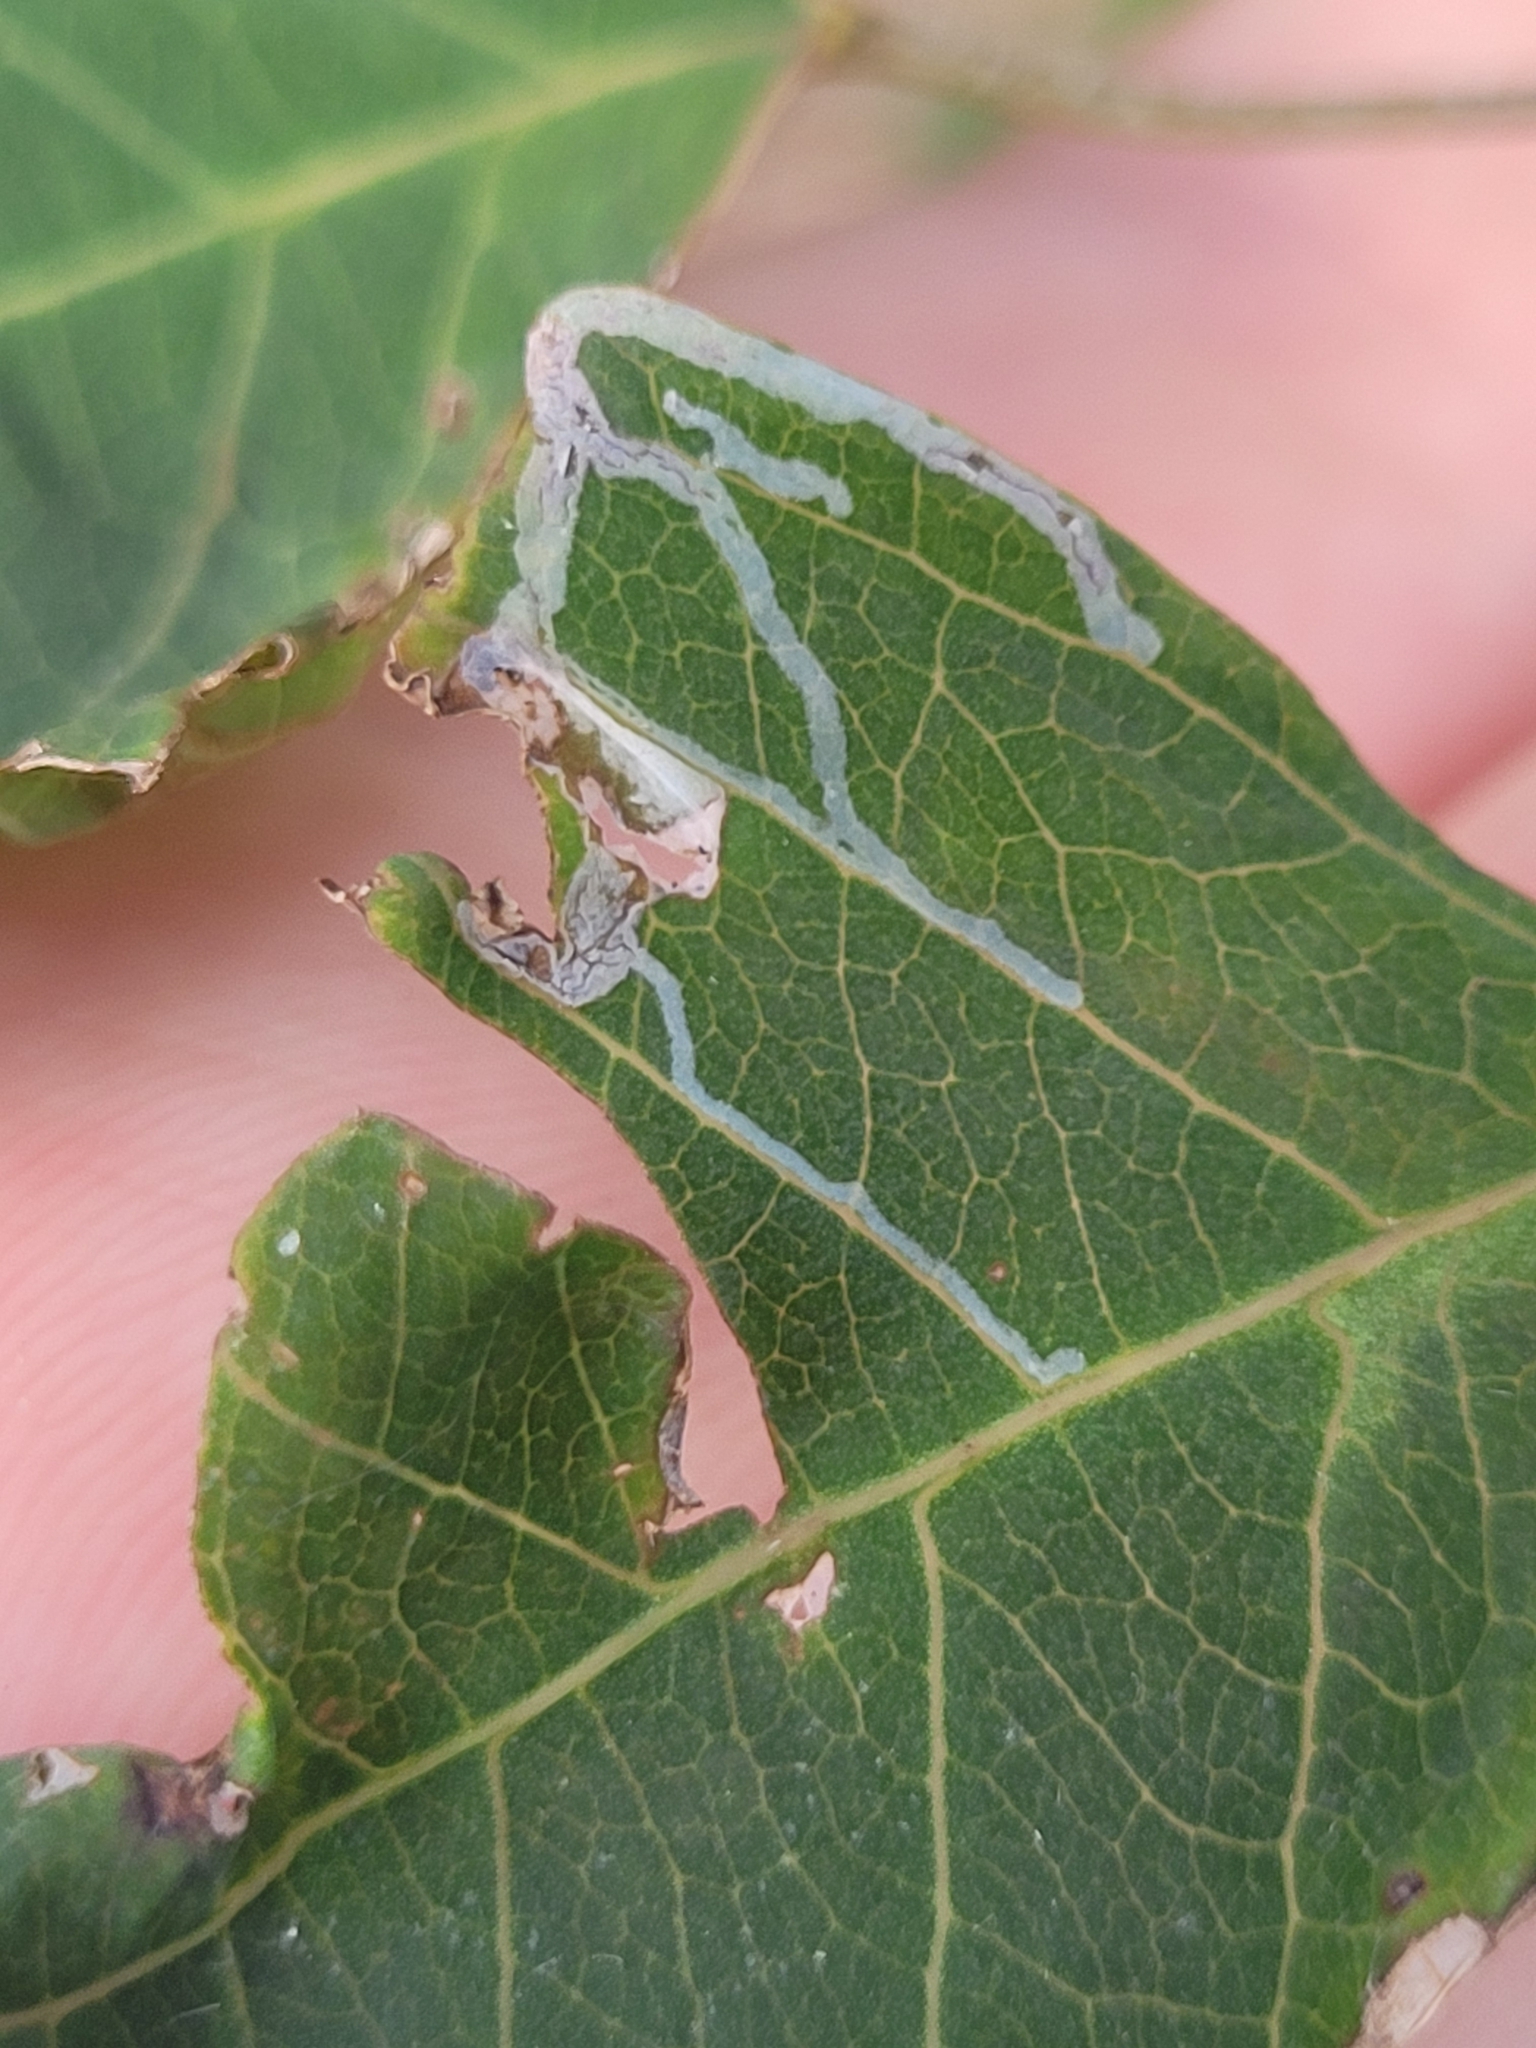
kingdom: Animalia
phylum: Arthropoda
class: Insecta
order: Lepidoptera
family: Gracillariidae
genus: Caloptilia
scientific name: Caloptilia triadicae
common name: Tallow leaf roller
